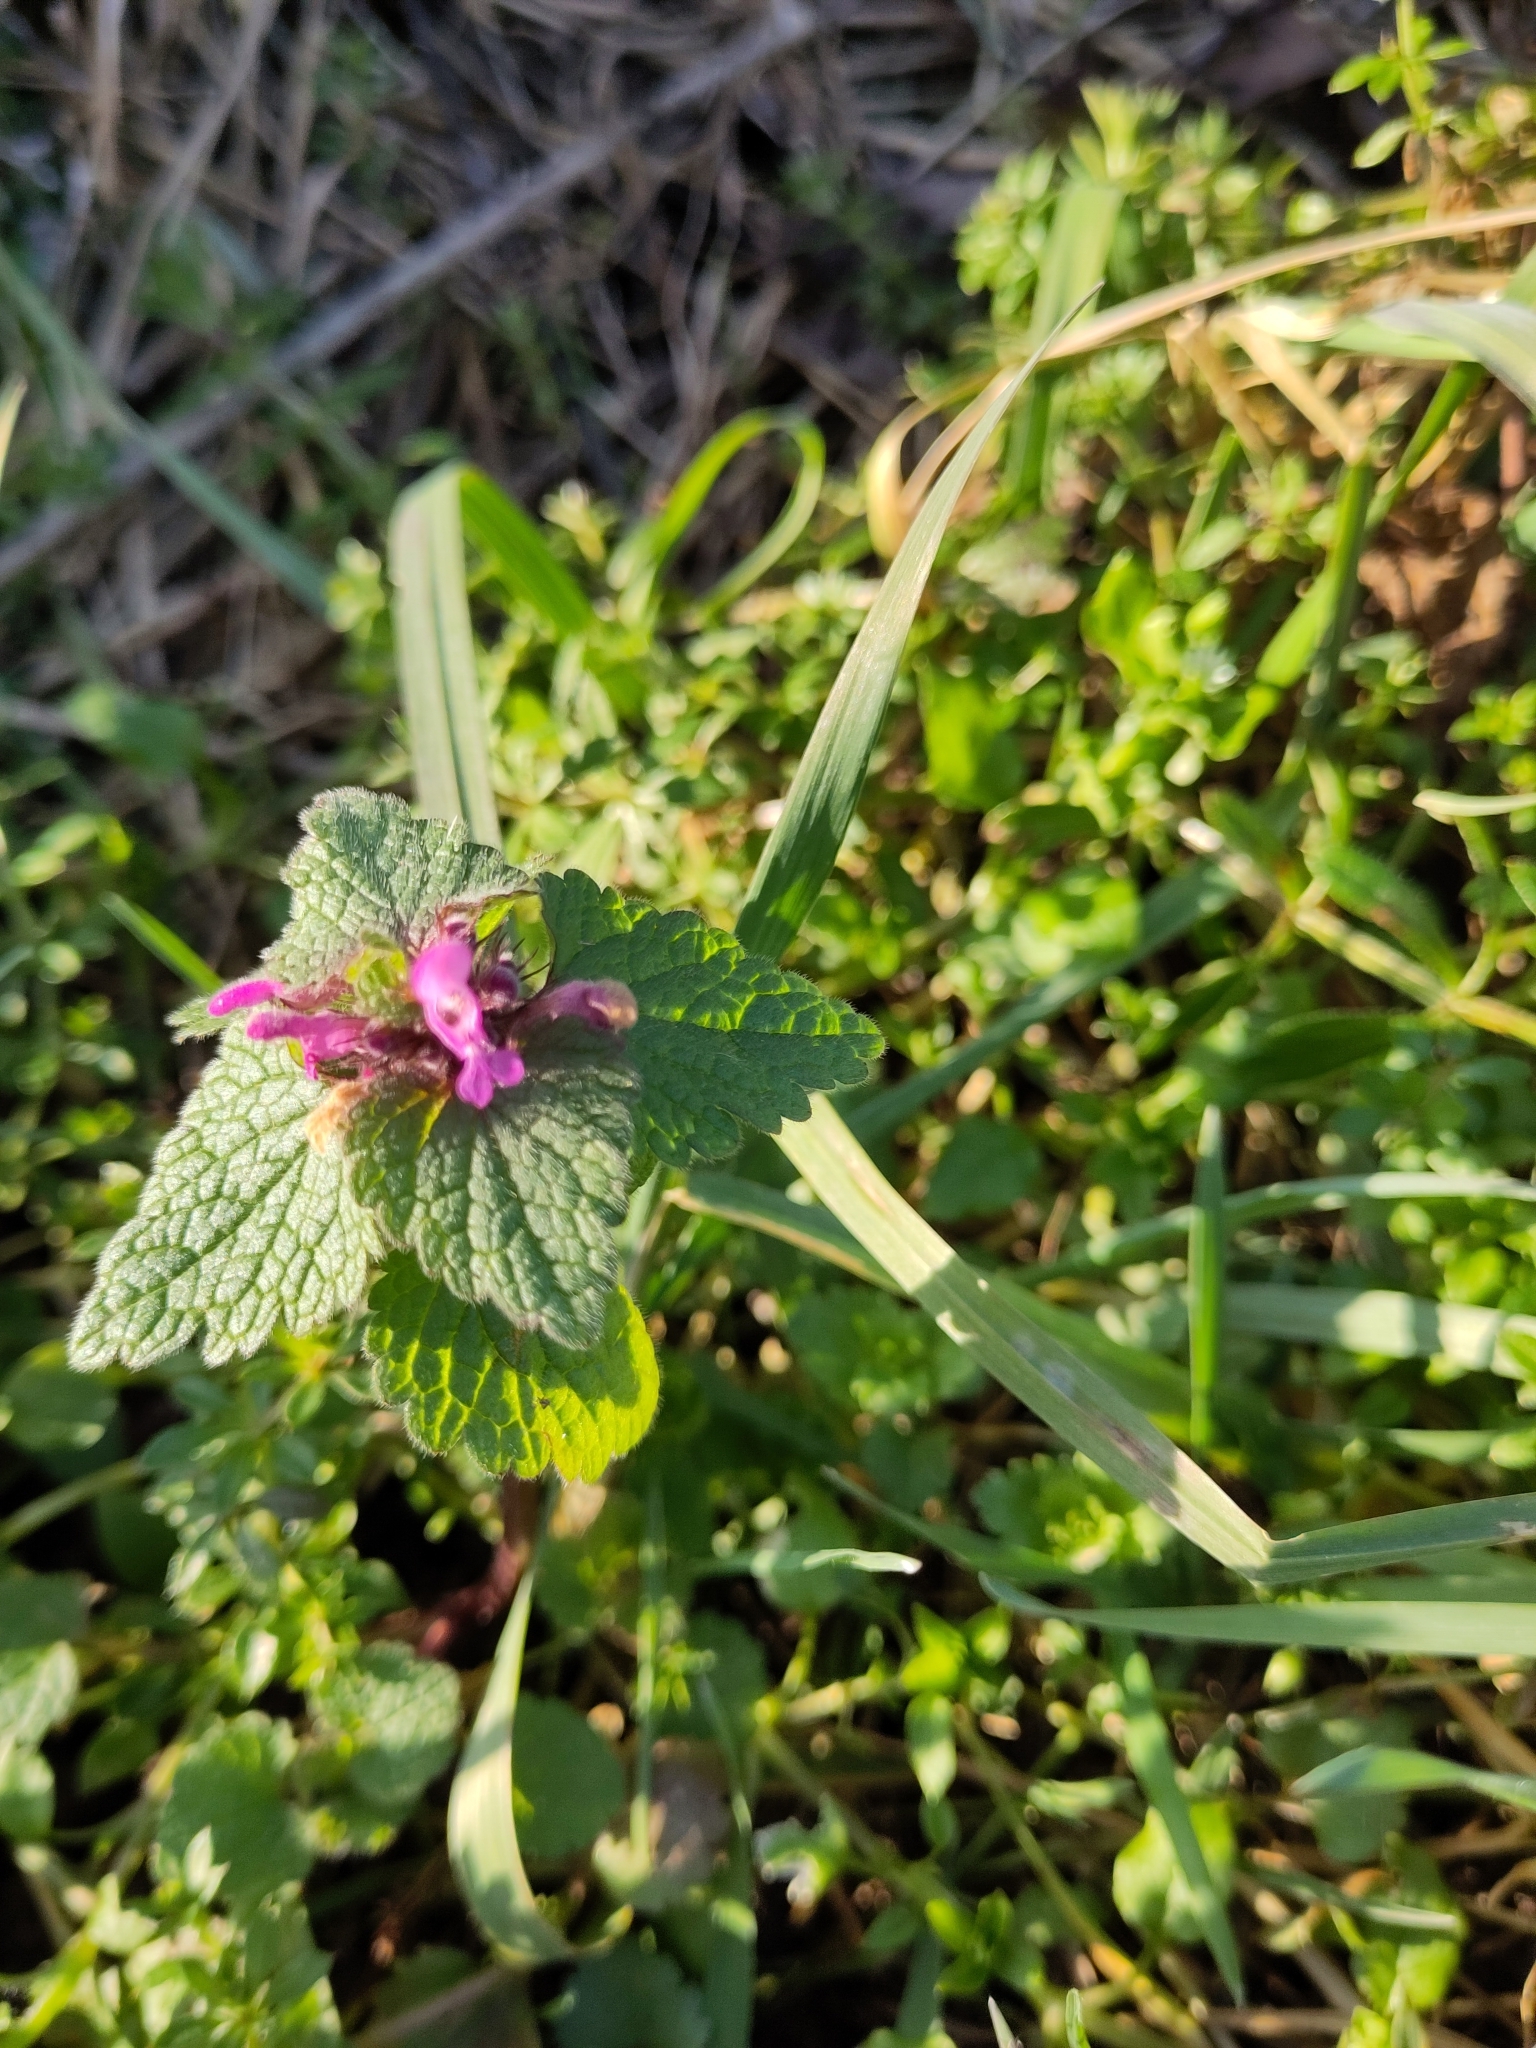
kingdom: Plantae
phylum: Tracheophyta
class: Magnoliopsida
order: Lamiales
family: Lamiaceae
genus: Lamium
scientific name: Lamium purpureum
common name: Red dead-nettle
